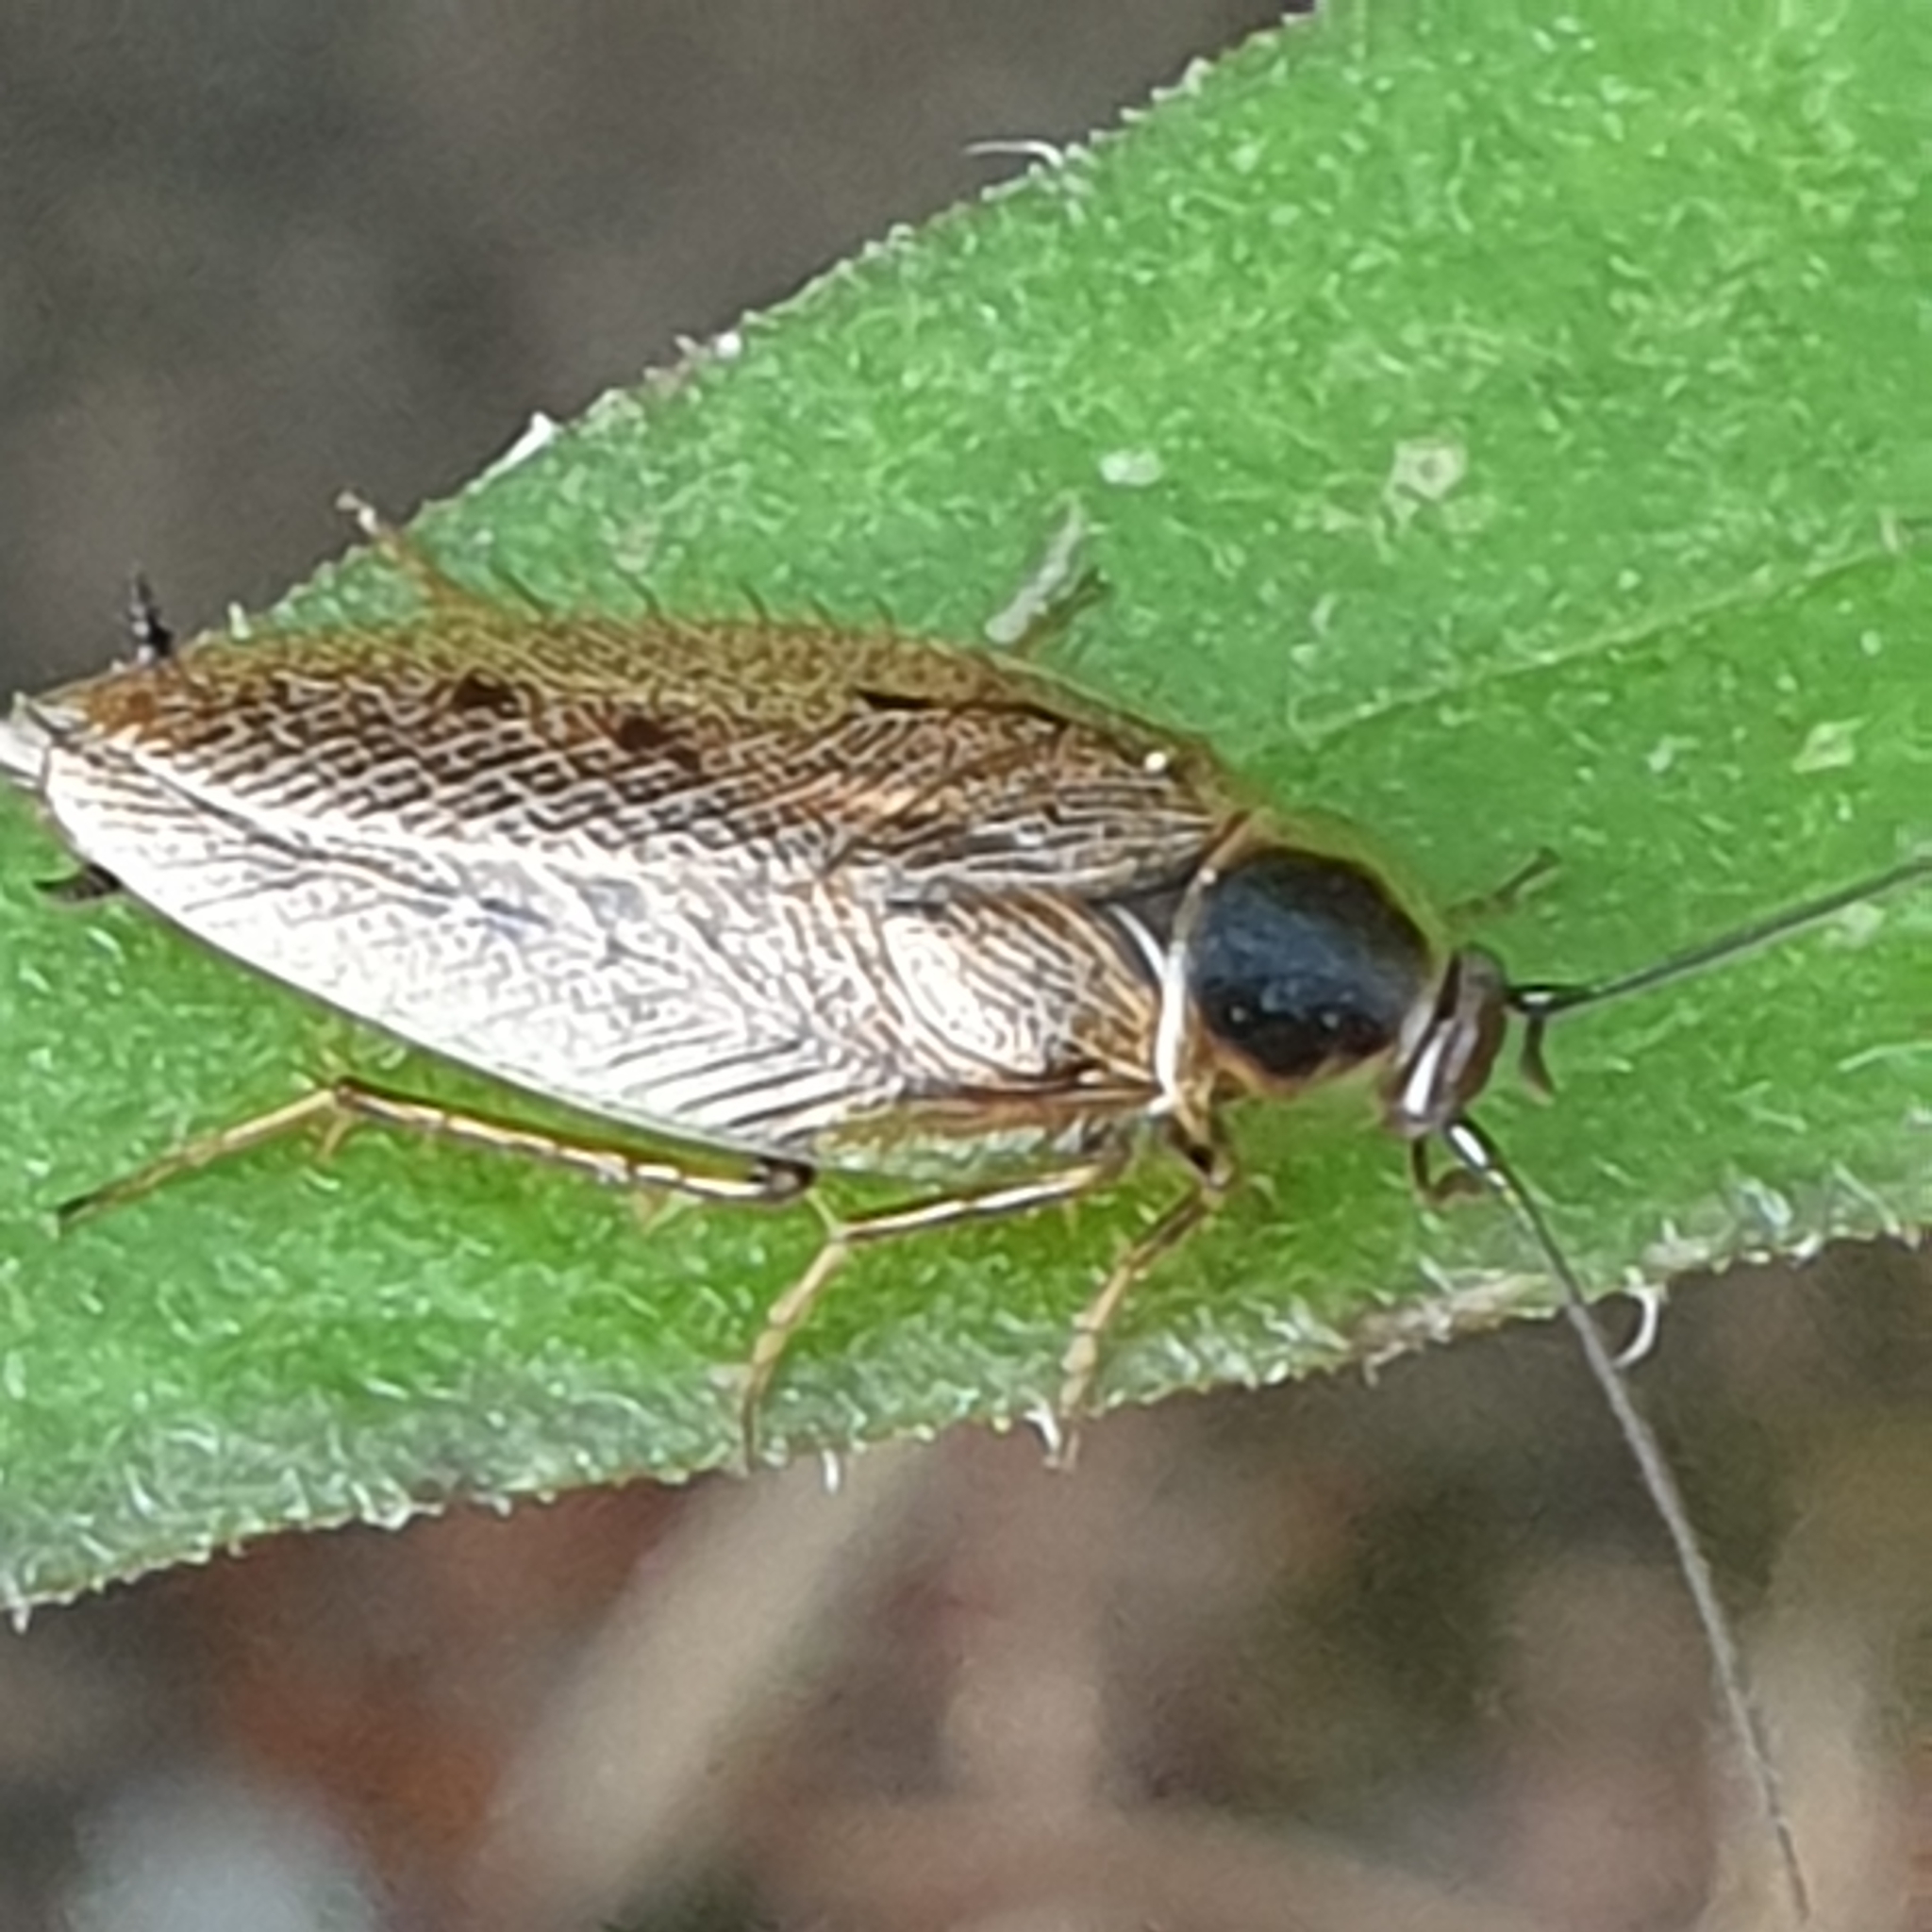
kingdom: Animalia
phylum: Arthropoda
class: Insecta
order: Blattodea
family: Ectobiidae
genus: Ectobius
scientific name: Ectobius lapponicus
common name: Dusky cockroach
